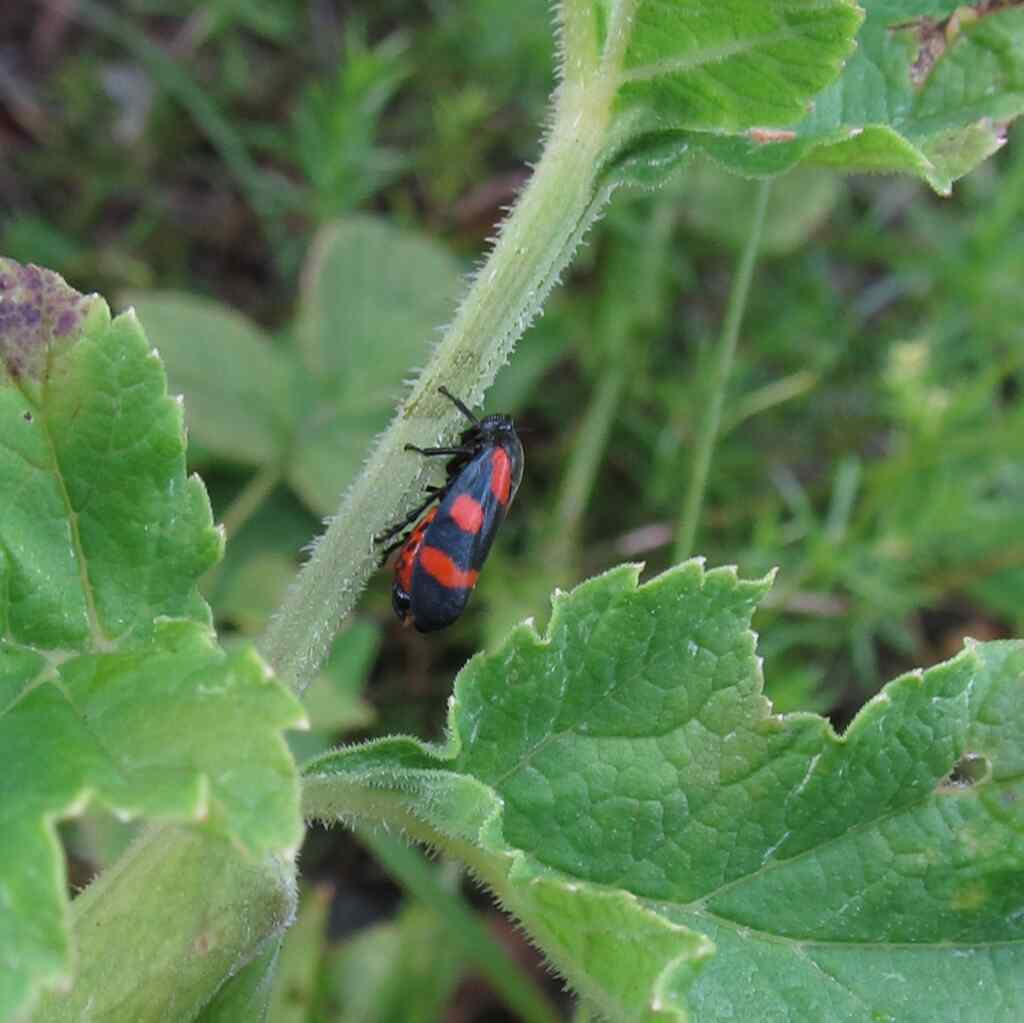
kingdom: Animalia
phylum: Arthropoda
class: Insecta
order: Hemiptera
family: Cercopidae
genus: Cercopis
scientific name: Cercopis sanguinolenta
